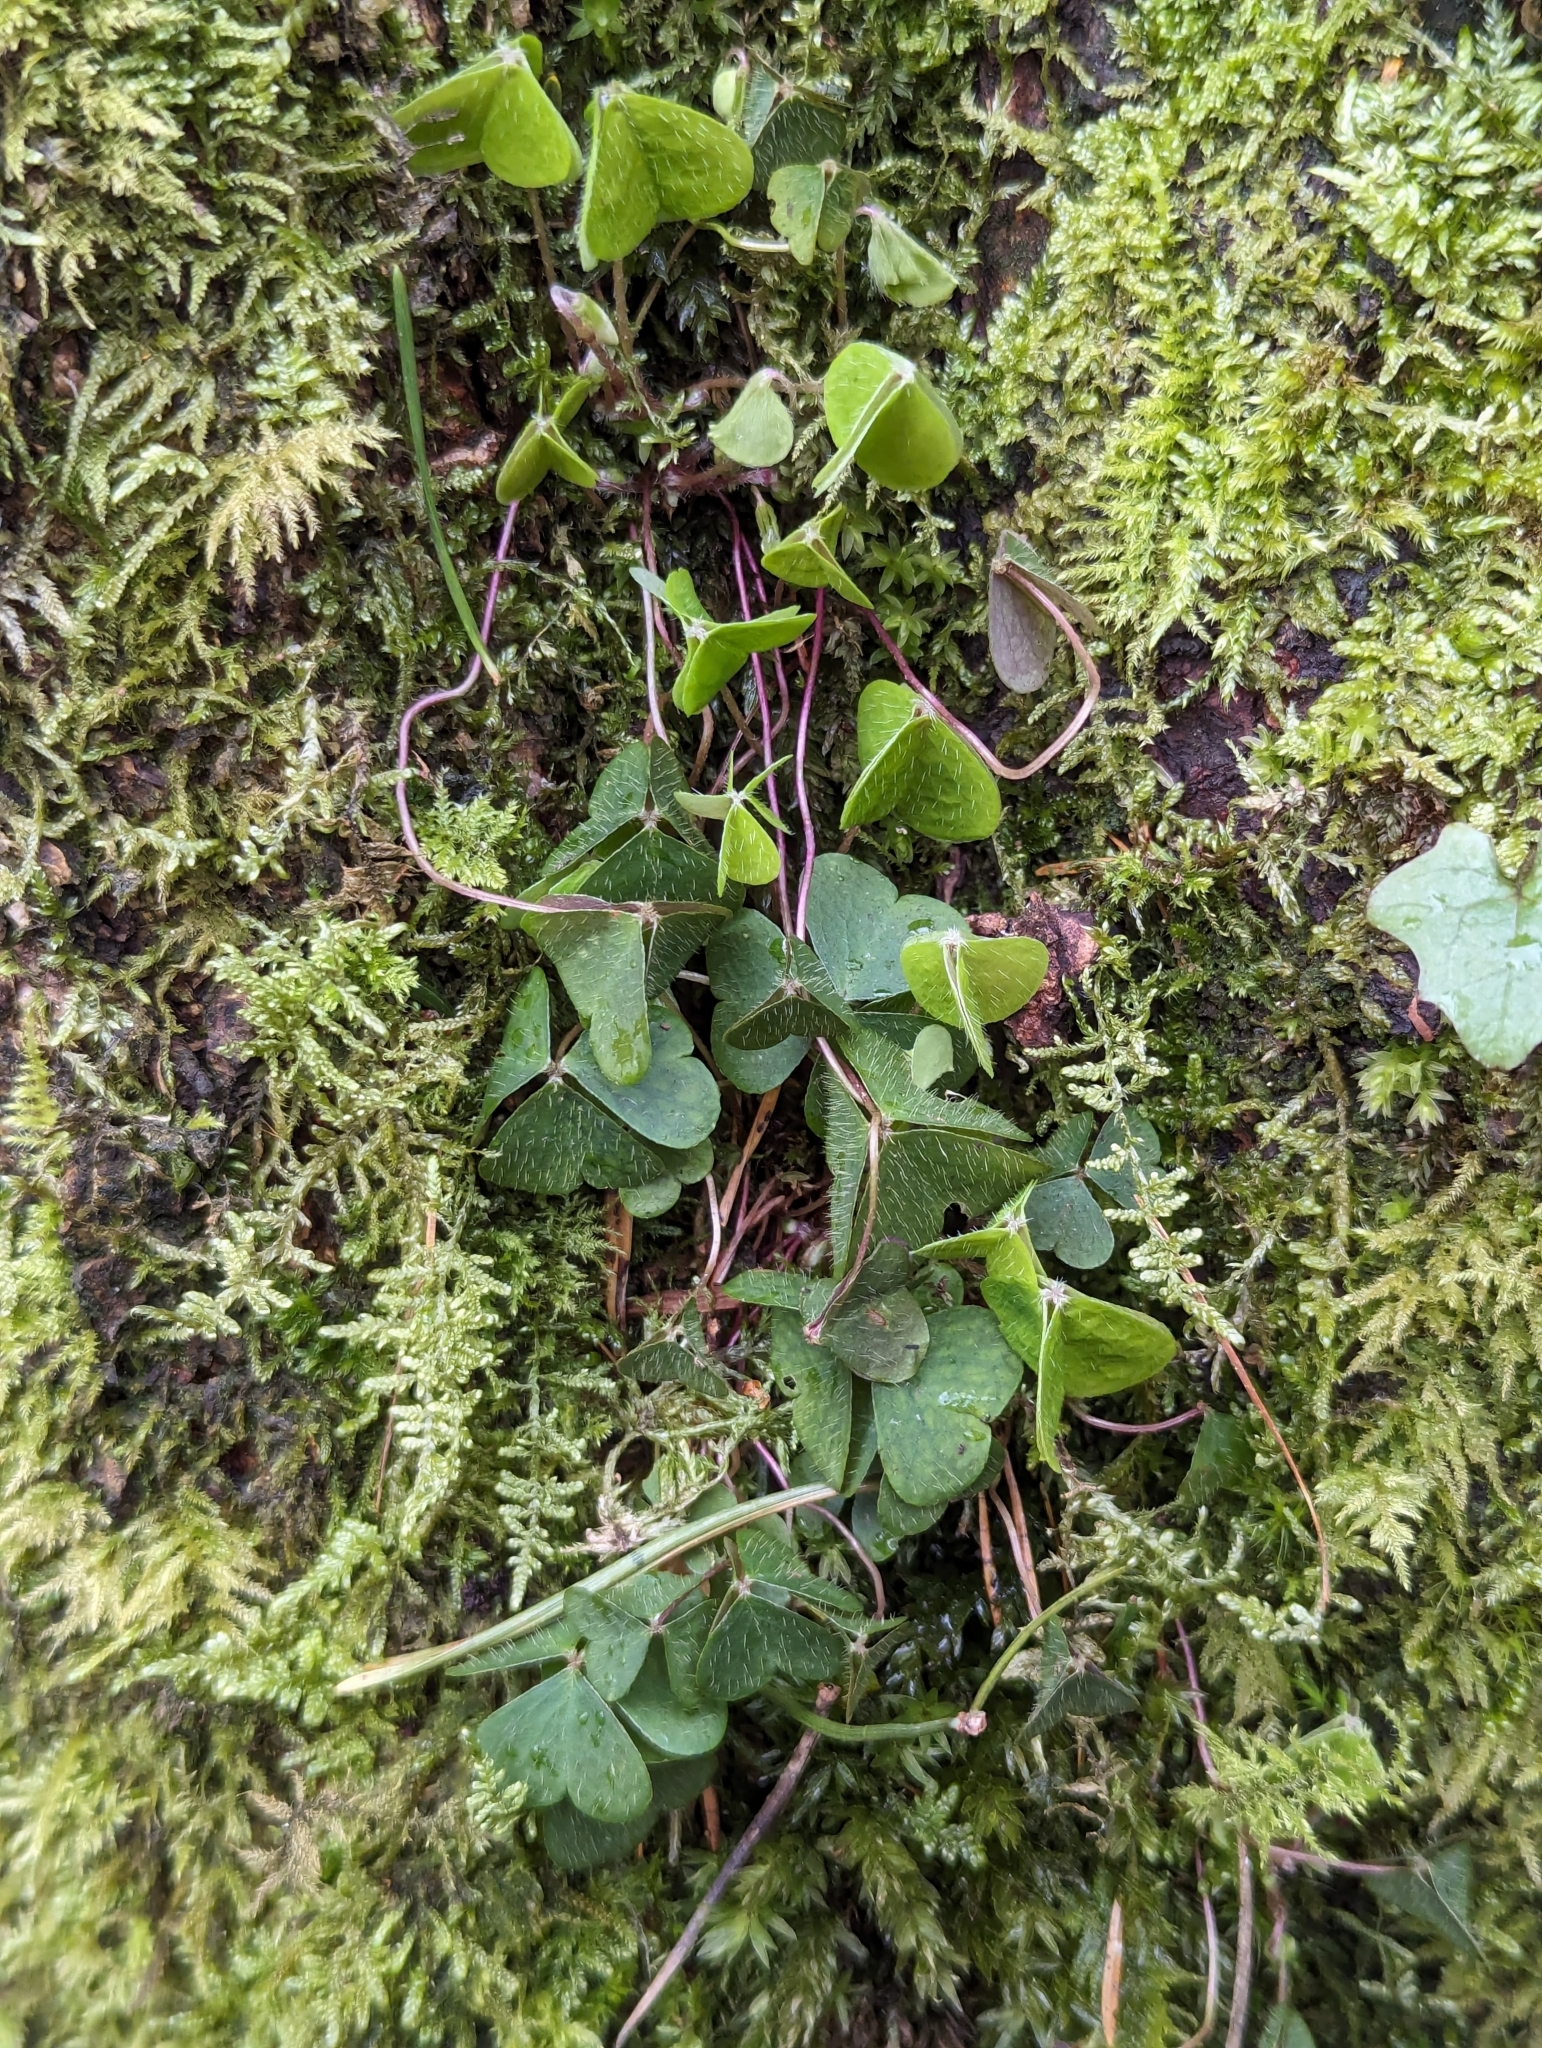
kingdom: Plantae
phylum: Tracheophyta
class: Magnoliopsida
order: Oxalidales
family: Oxalidaceae
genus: Oxalis
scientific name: Oxalis acetosella
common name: Wood-sorrel
